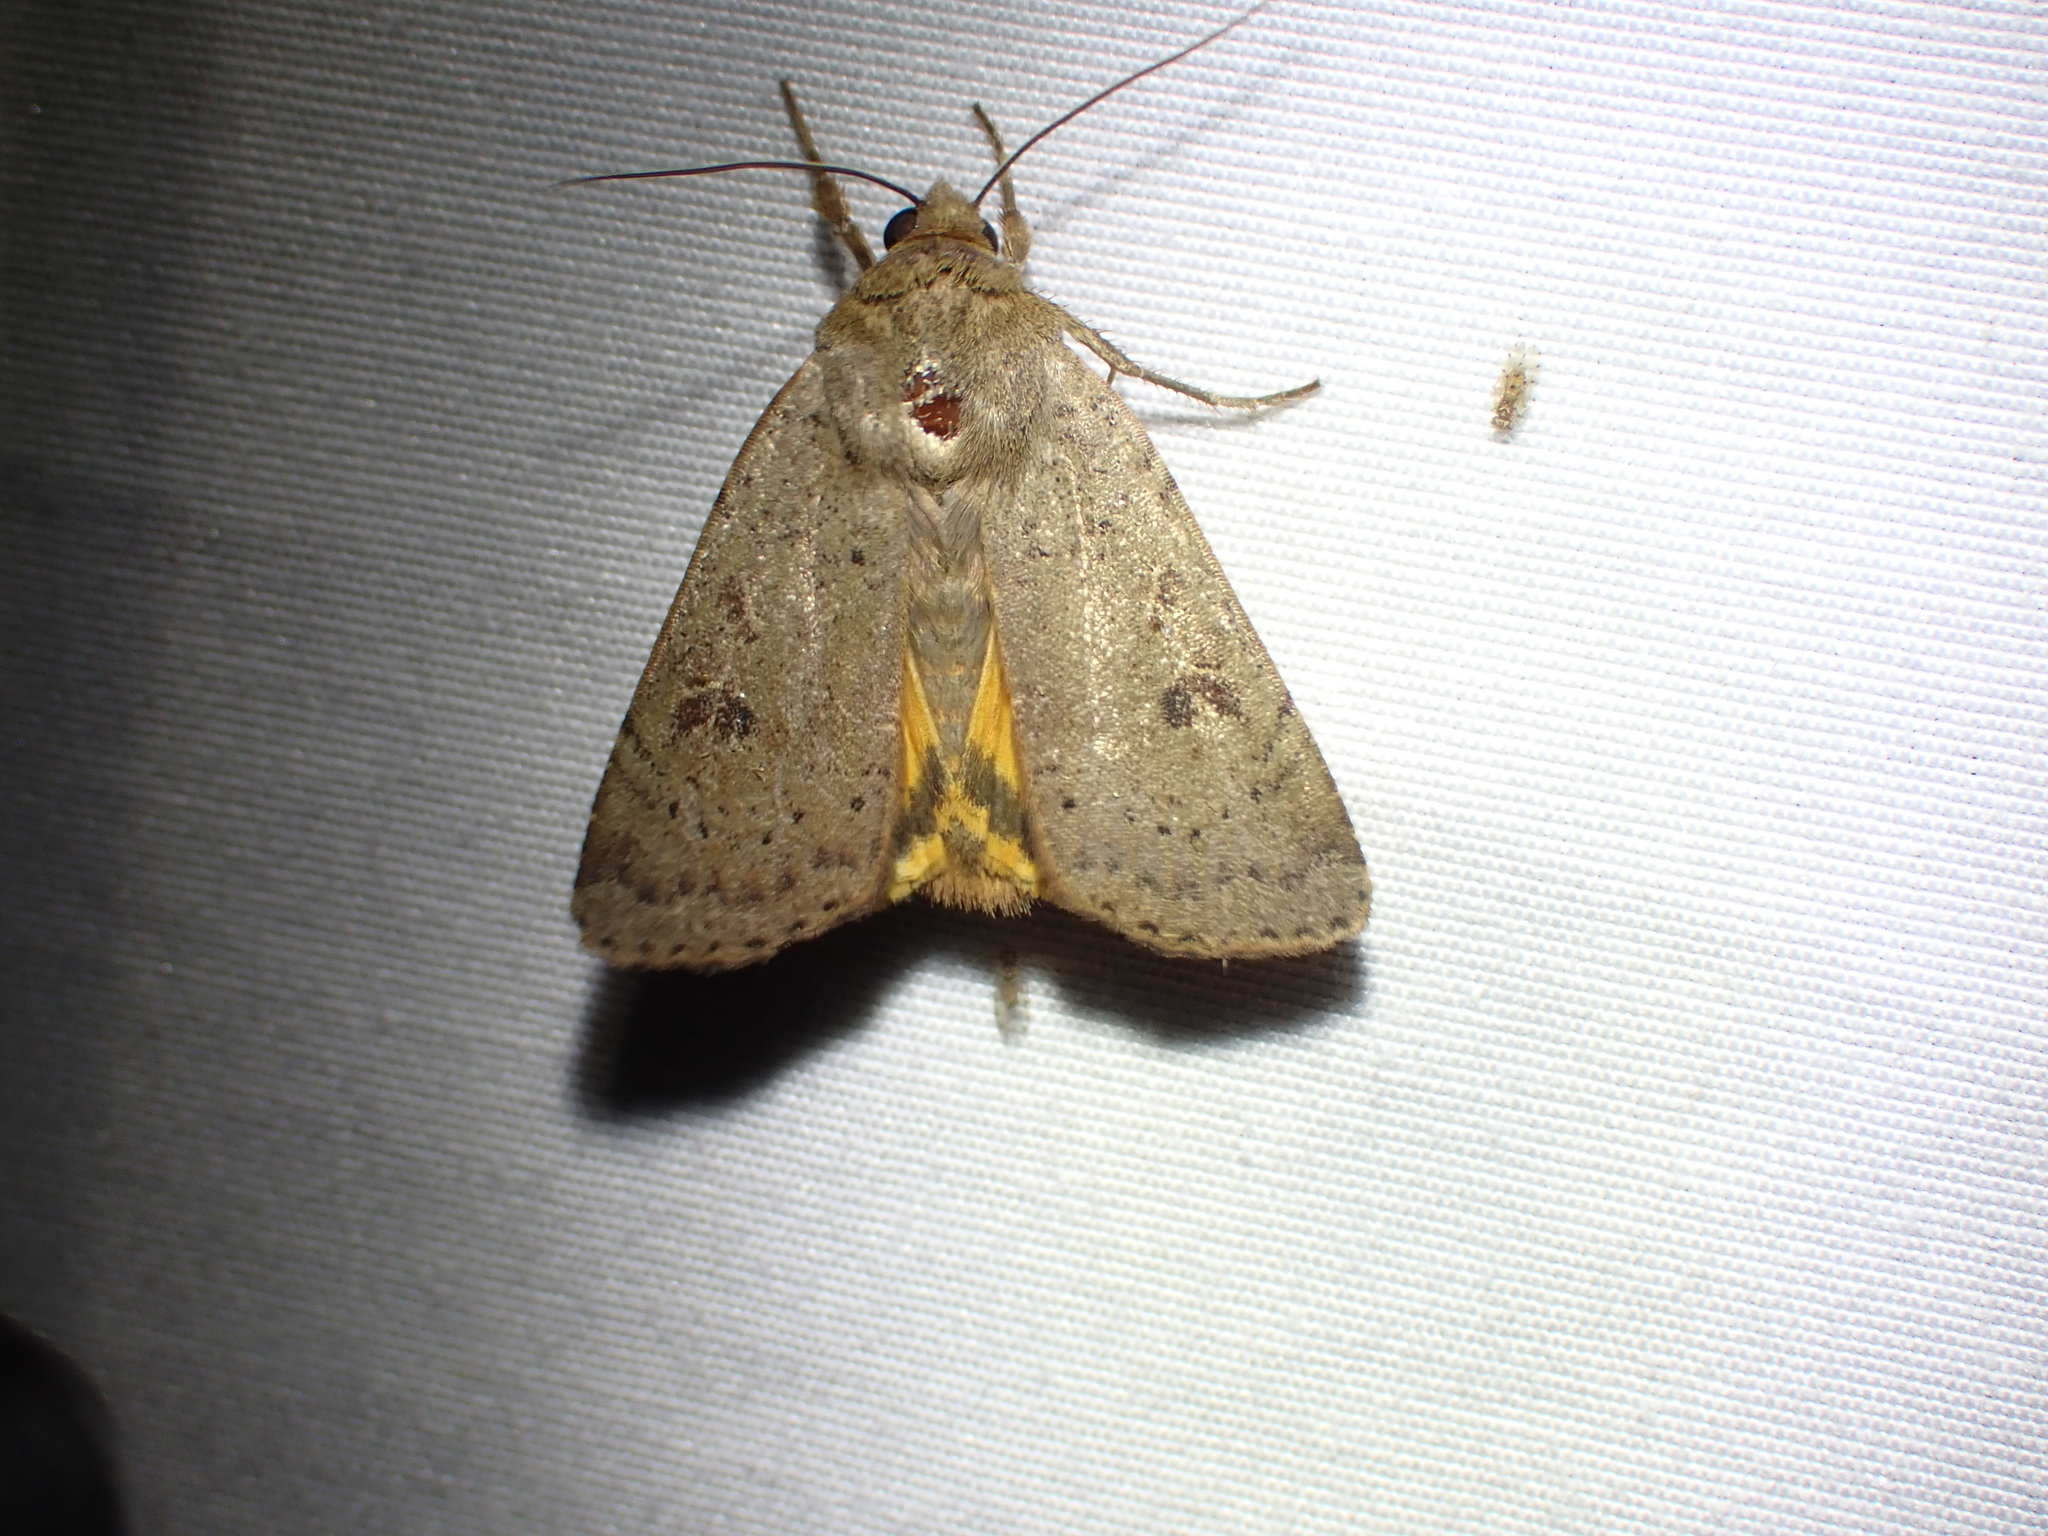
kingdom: Animalia
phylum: Arthropoda
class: Insecta
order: Lepidoptera
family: Noctuidae
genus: Noctua
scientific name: Noctua comes
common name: Lesser yellow underwing
